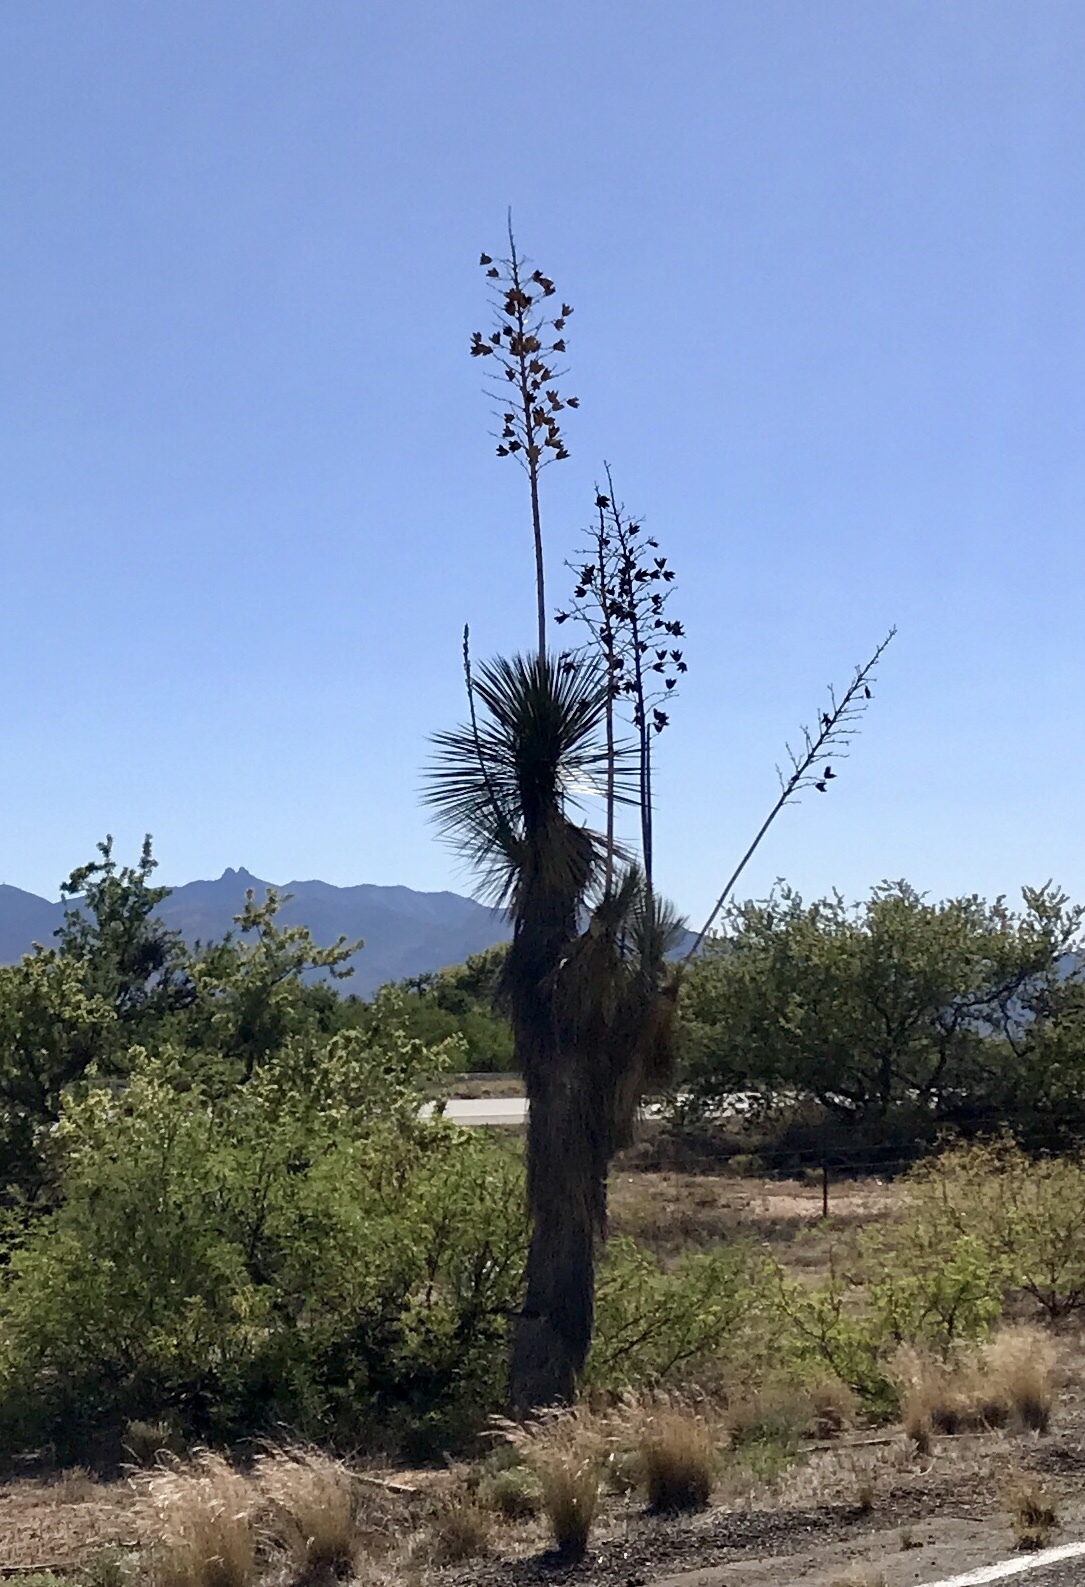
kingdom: Plantae
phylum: Tracheophyta
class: Liliopsida
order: Asparagales
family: Asparagaceae
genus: Yucca
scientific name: Yucca elata
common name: Palmella
